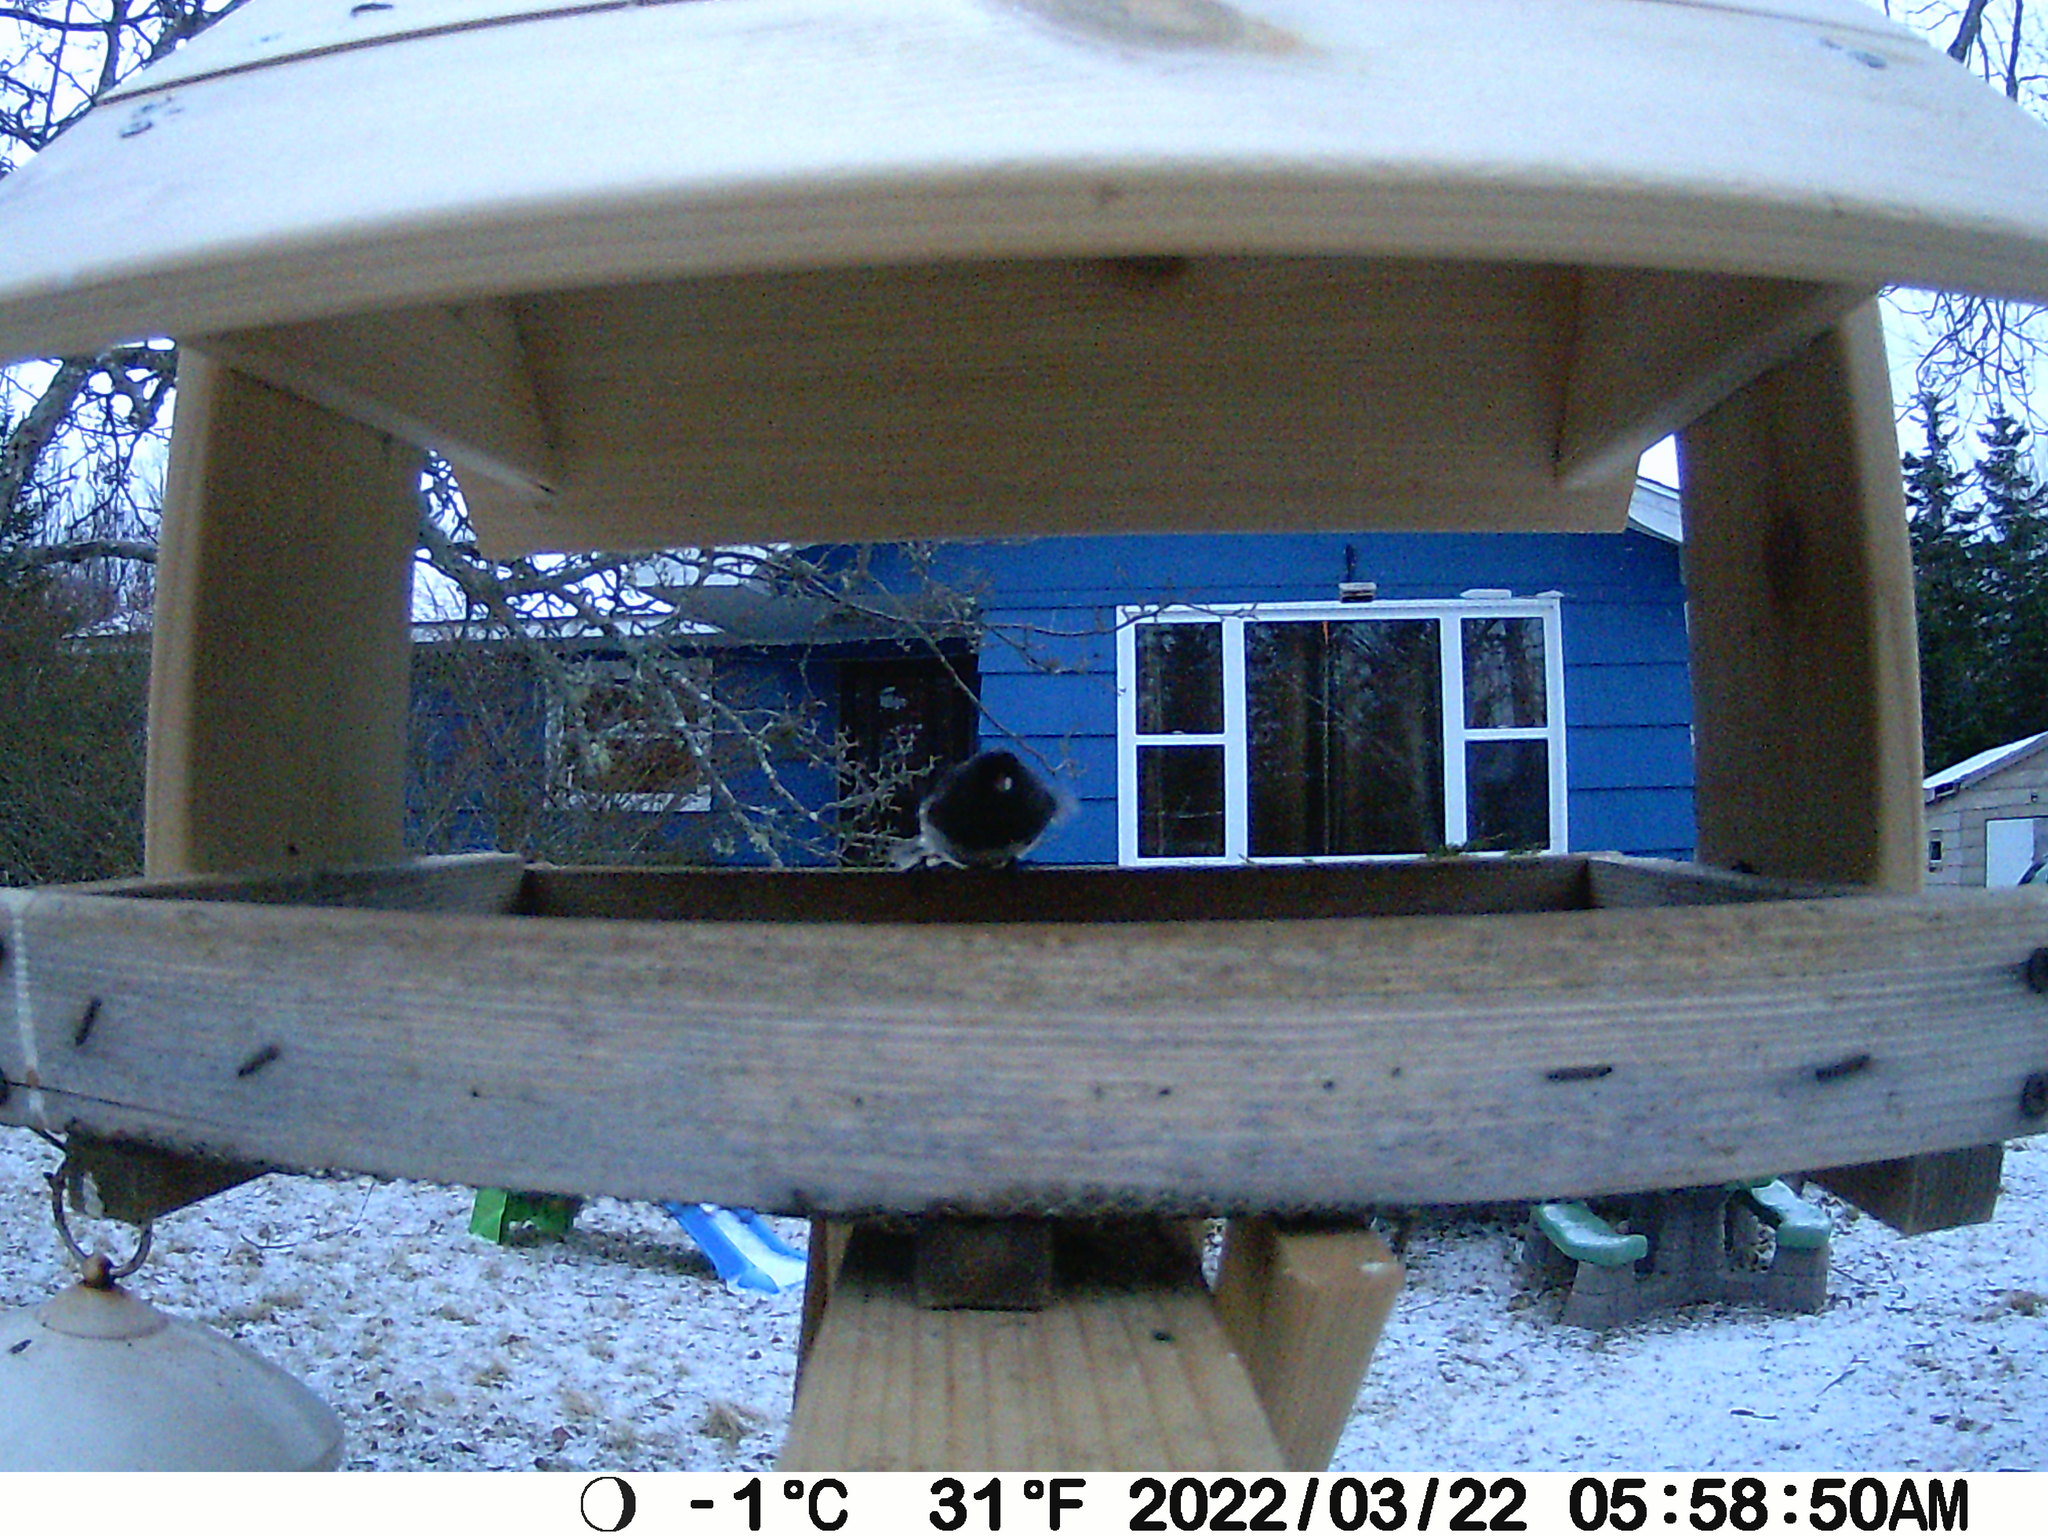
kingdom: Animalia
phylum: Chordata
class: Aves
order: Passeriformes
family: Passerellidae
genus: Junco
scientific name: Junco hyemalis
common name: Dark-eyed junco
